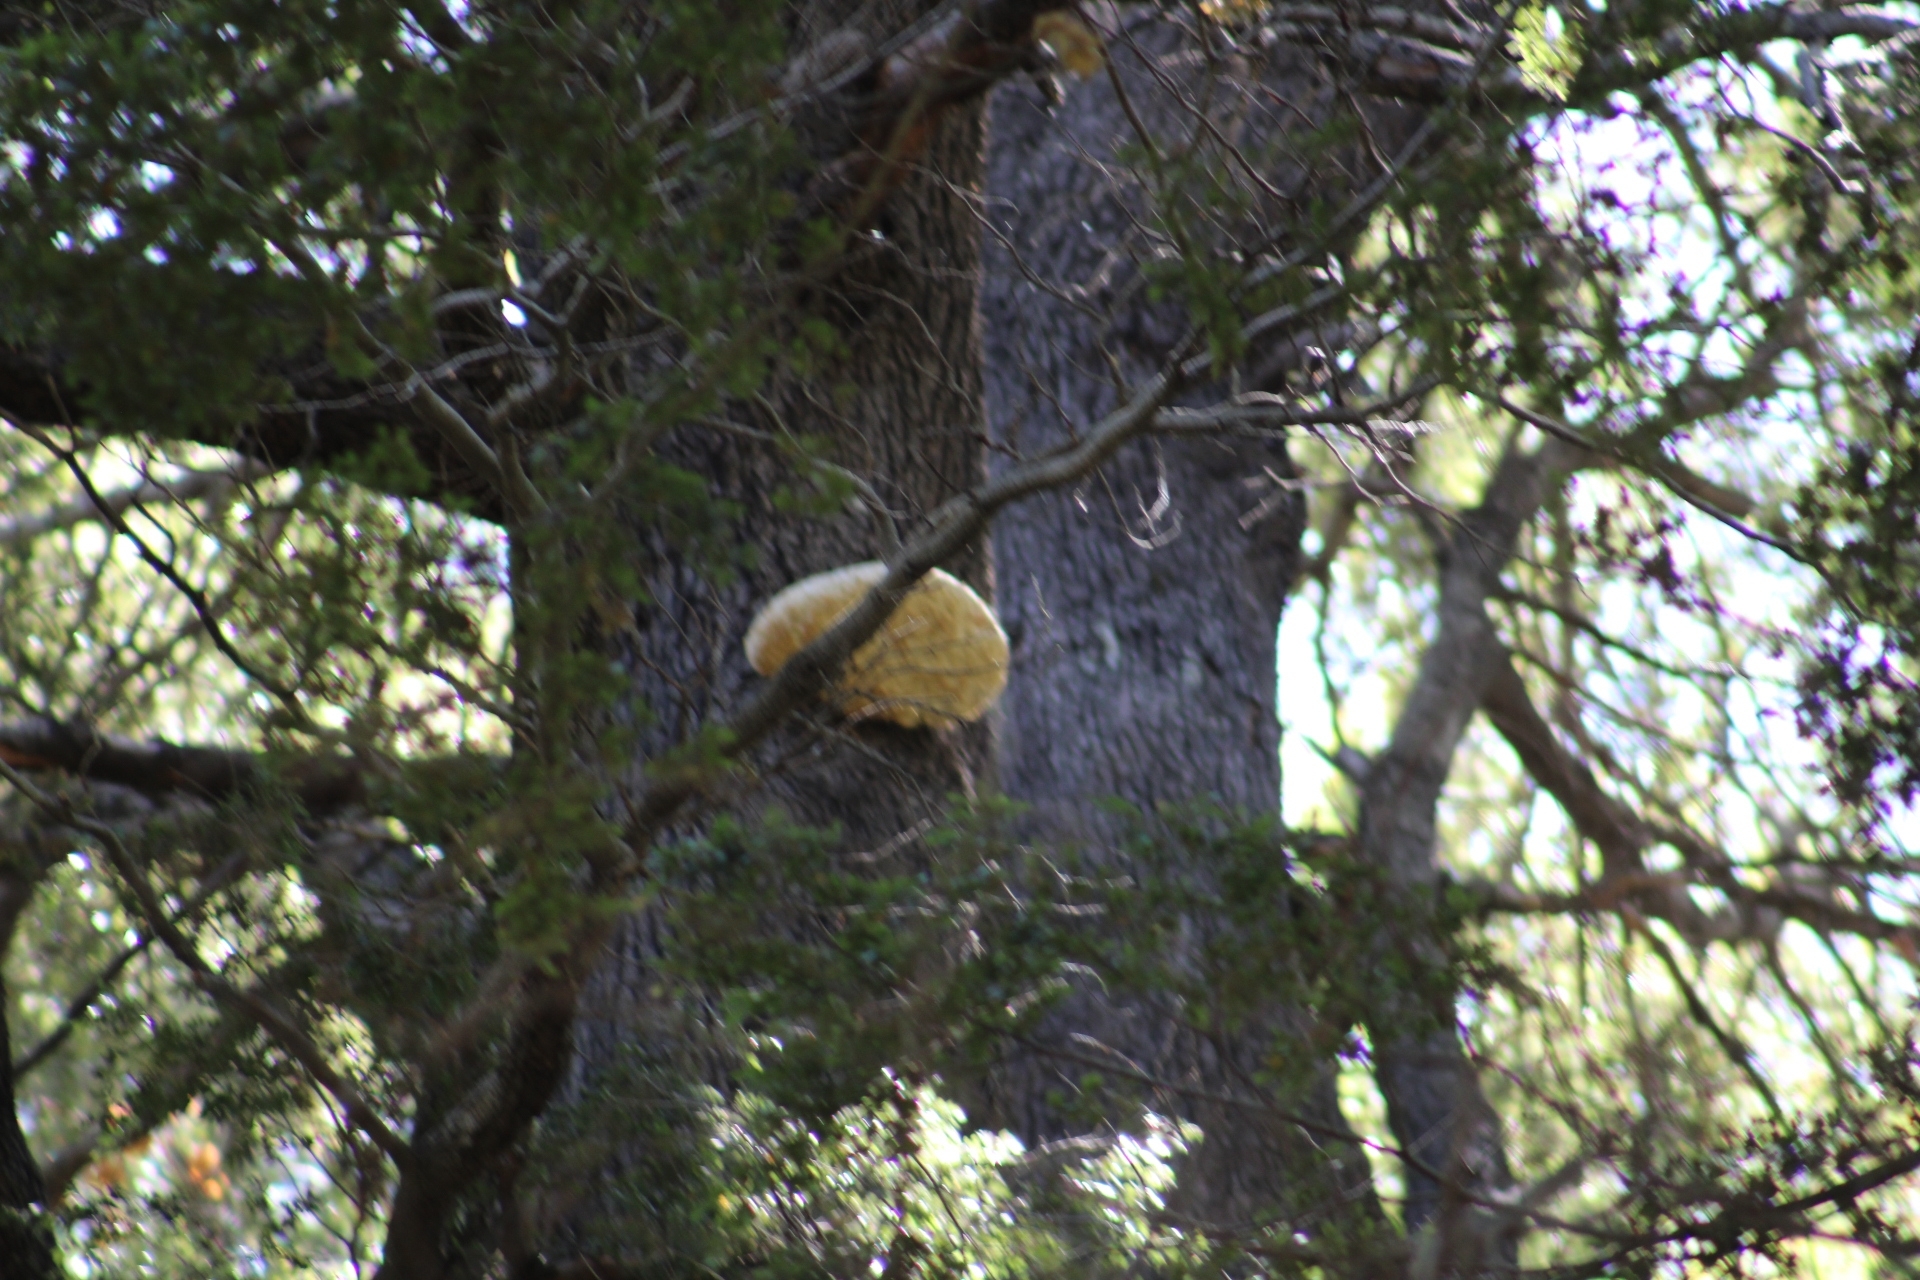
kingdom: Fungi
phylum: Basidiomycota
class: Agaricomycetes
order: Polyporales
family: Laetiporaceae
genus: Laetiporus
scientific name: Laetiporus portentosus
